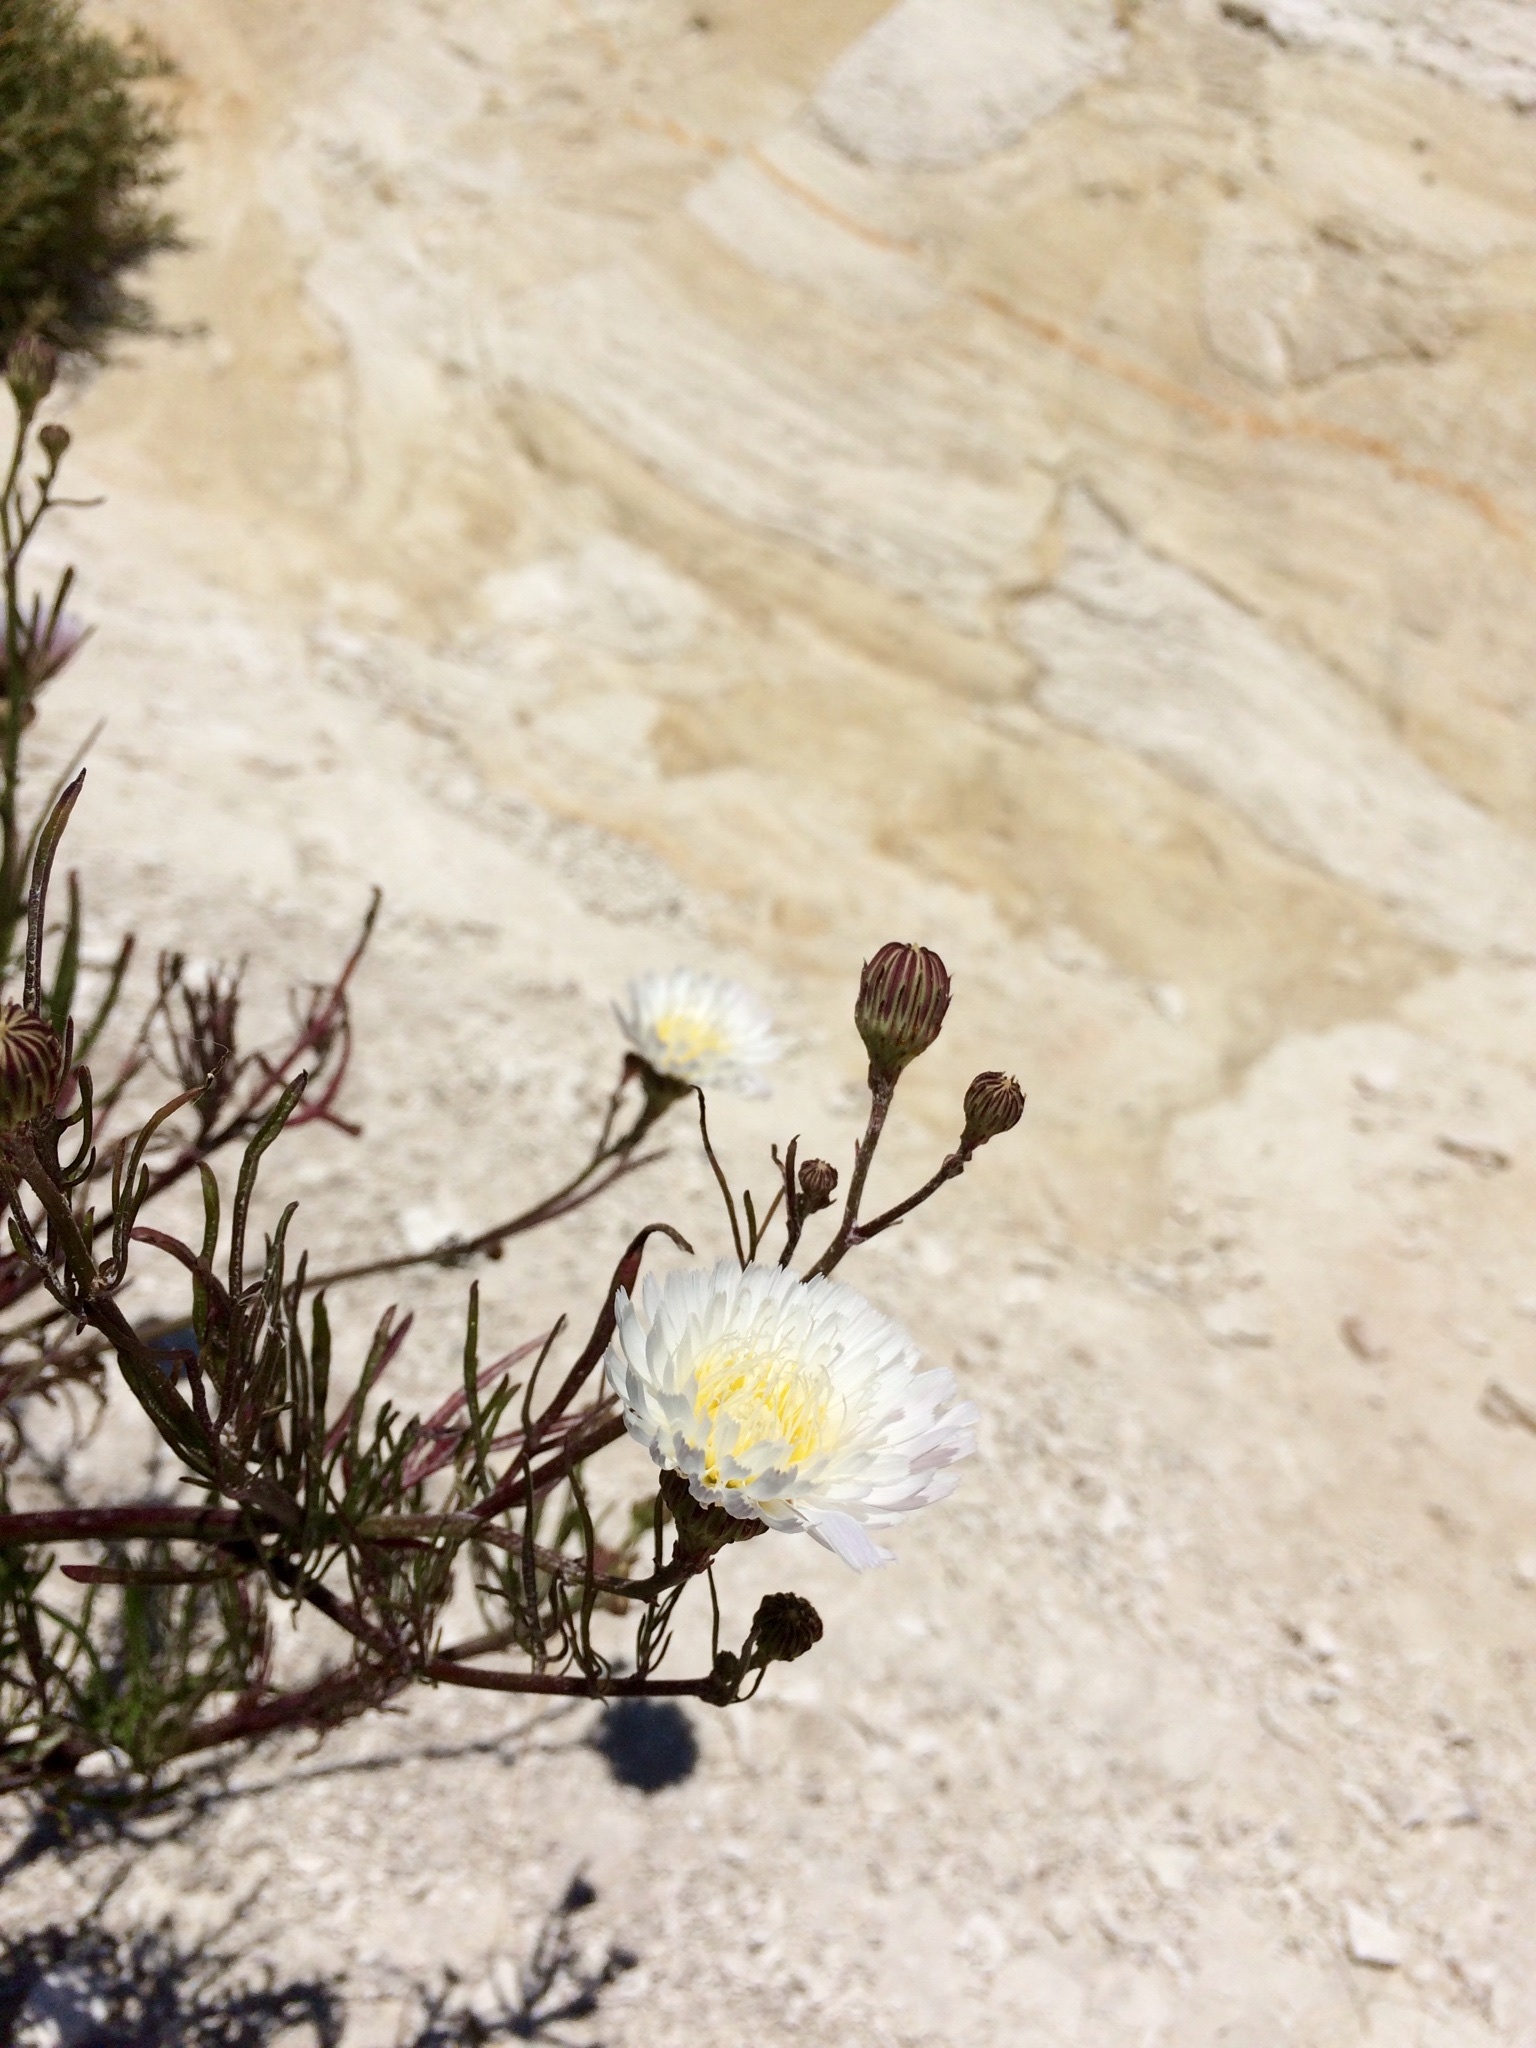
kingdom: Plantae
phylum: Tracheophyta
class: Magnoliopsida
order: Asterales
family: Asteraceae
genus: Malacothrix
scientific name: Malacothrix saxatilis
